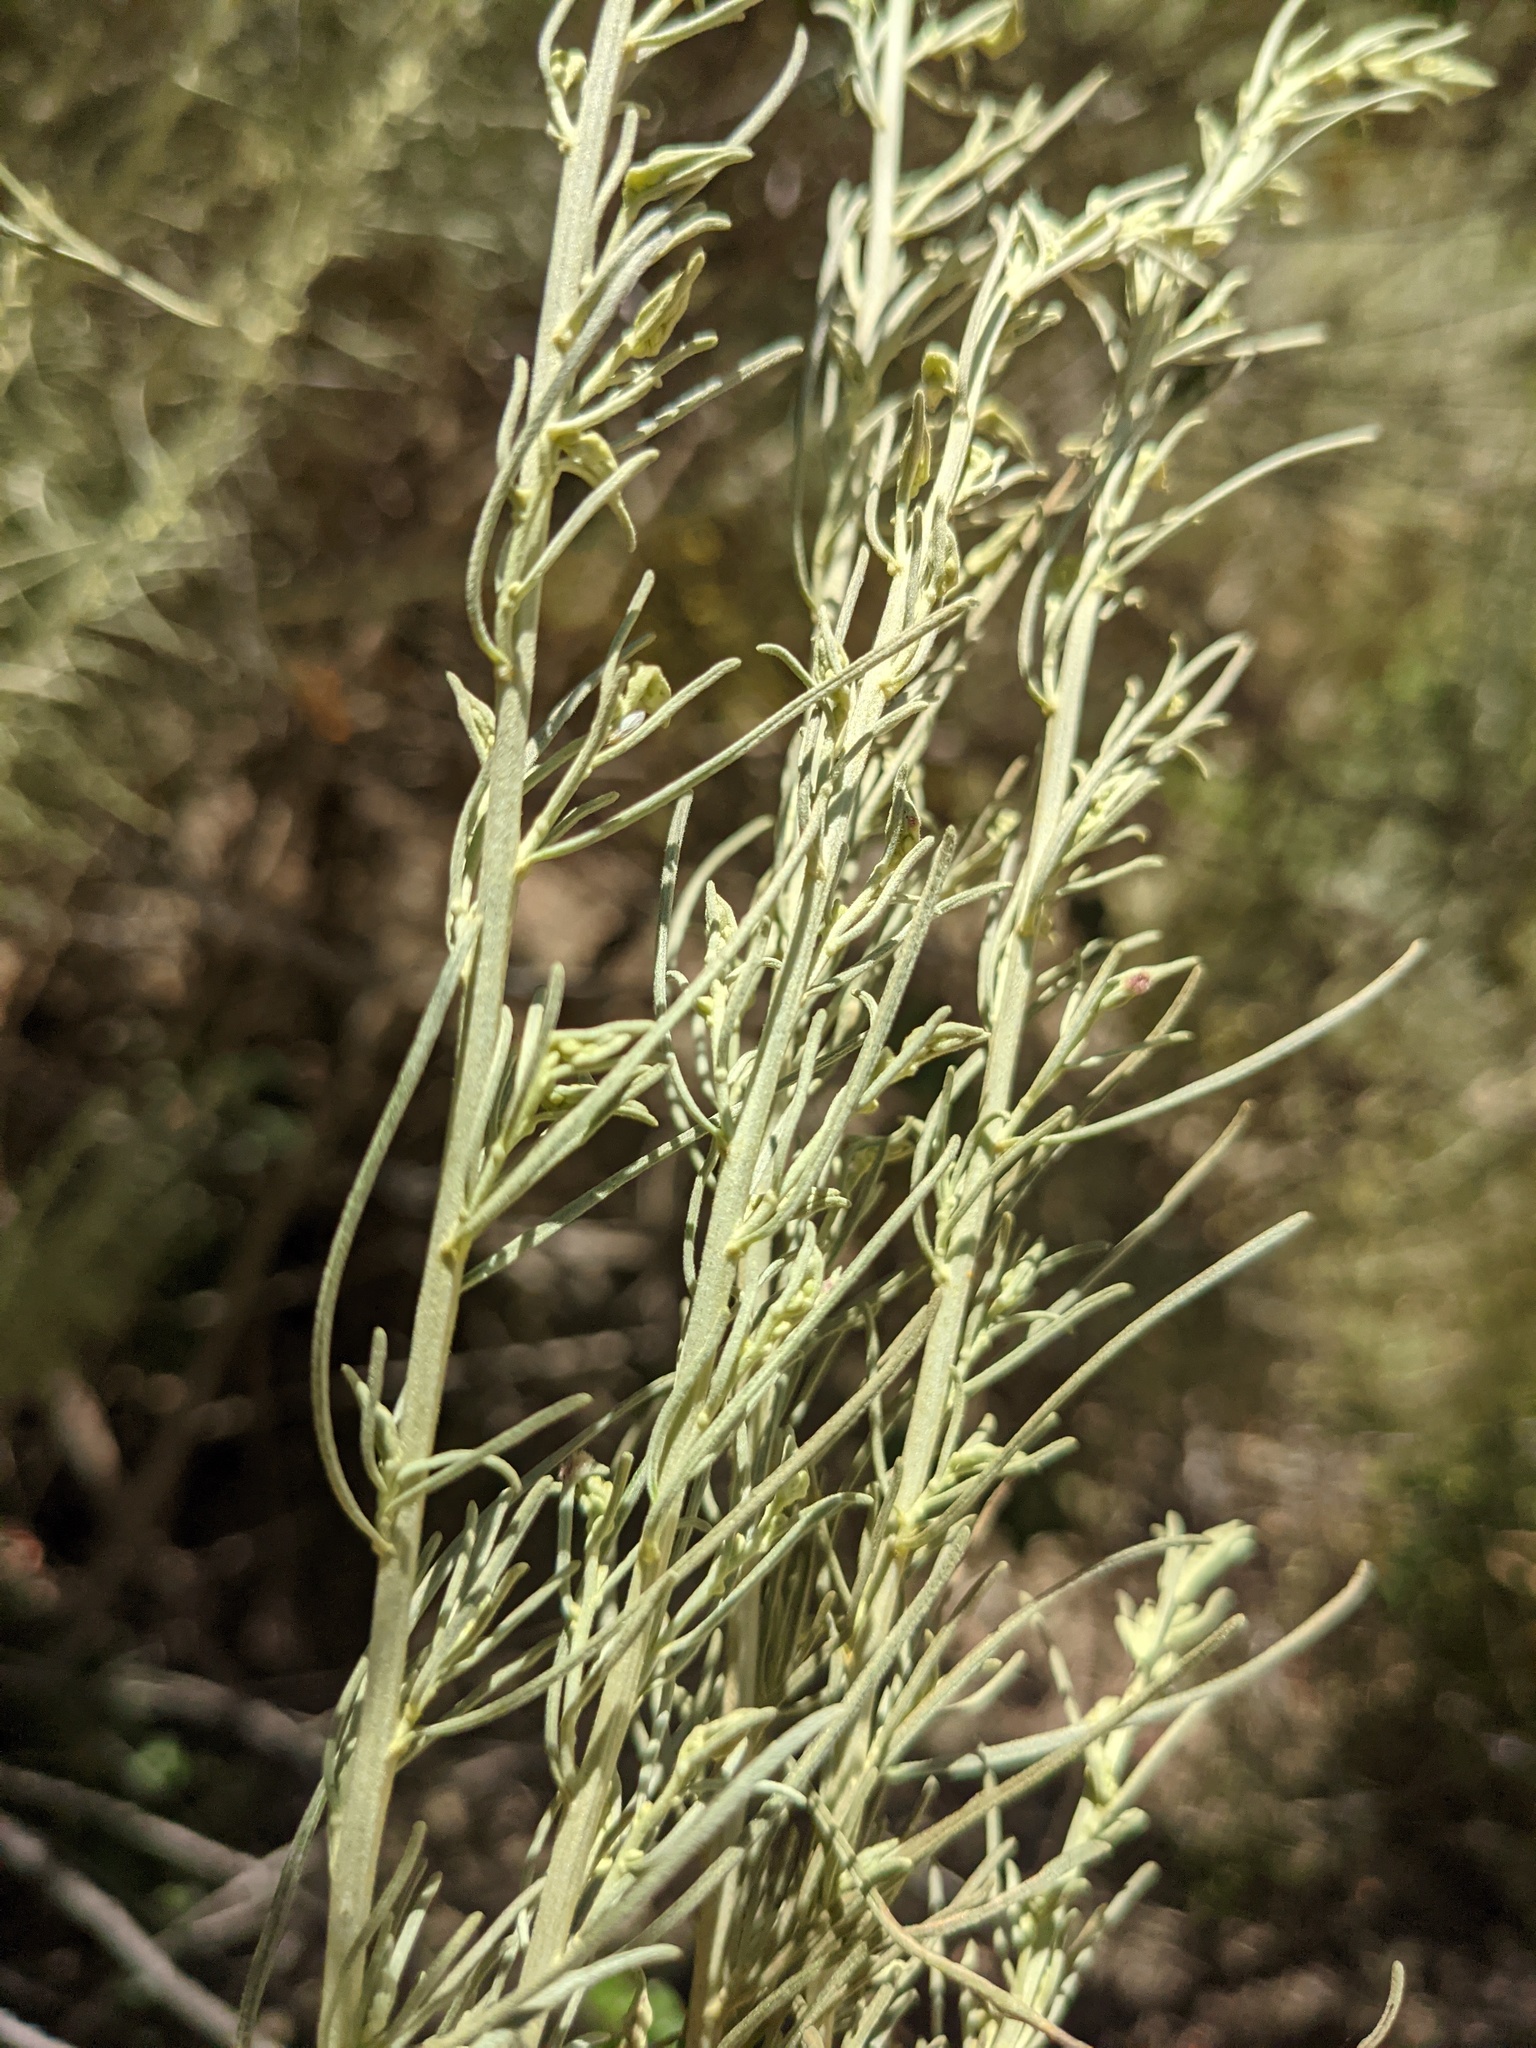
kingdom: Plantae
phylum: Tracheophyta
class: Magnoliopsida
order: Asterales
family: Asteraceae
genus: Artemisia
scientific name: Artemisia californica
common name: California sagebrush
